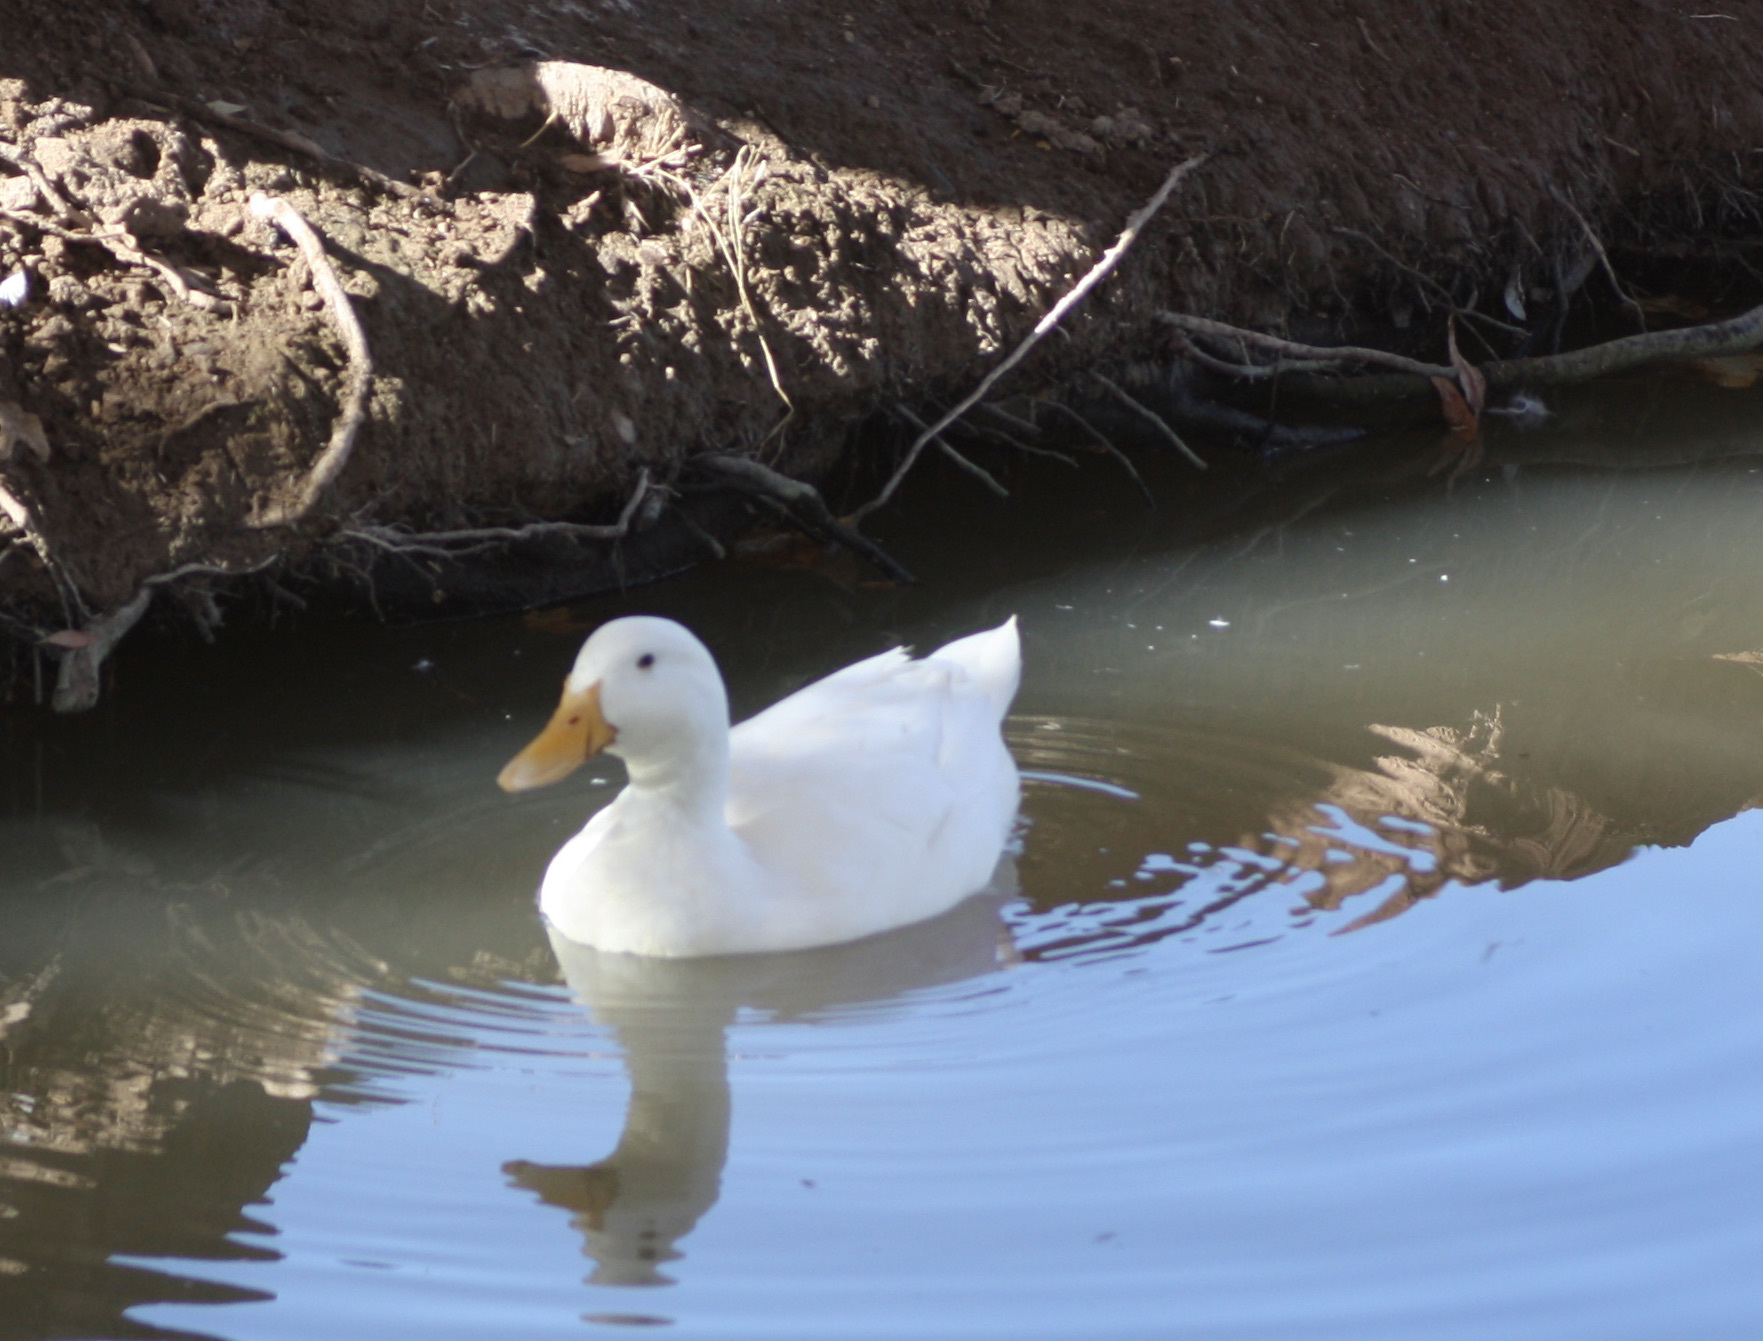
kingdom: Animalia
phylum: Chordata
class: Aves
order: Anseriformes
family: Anatidae
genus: Anas
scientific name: Anas platyrhynchos
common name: Mallard
